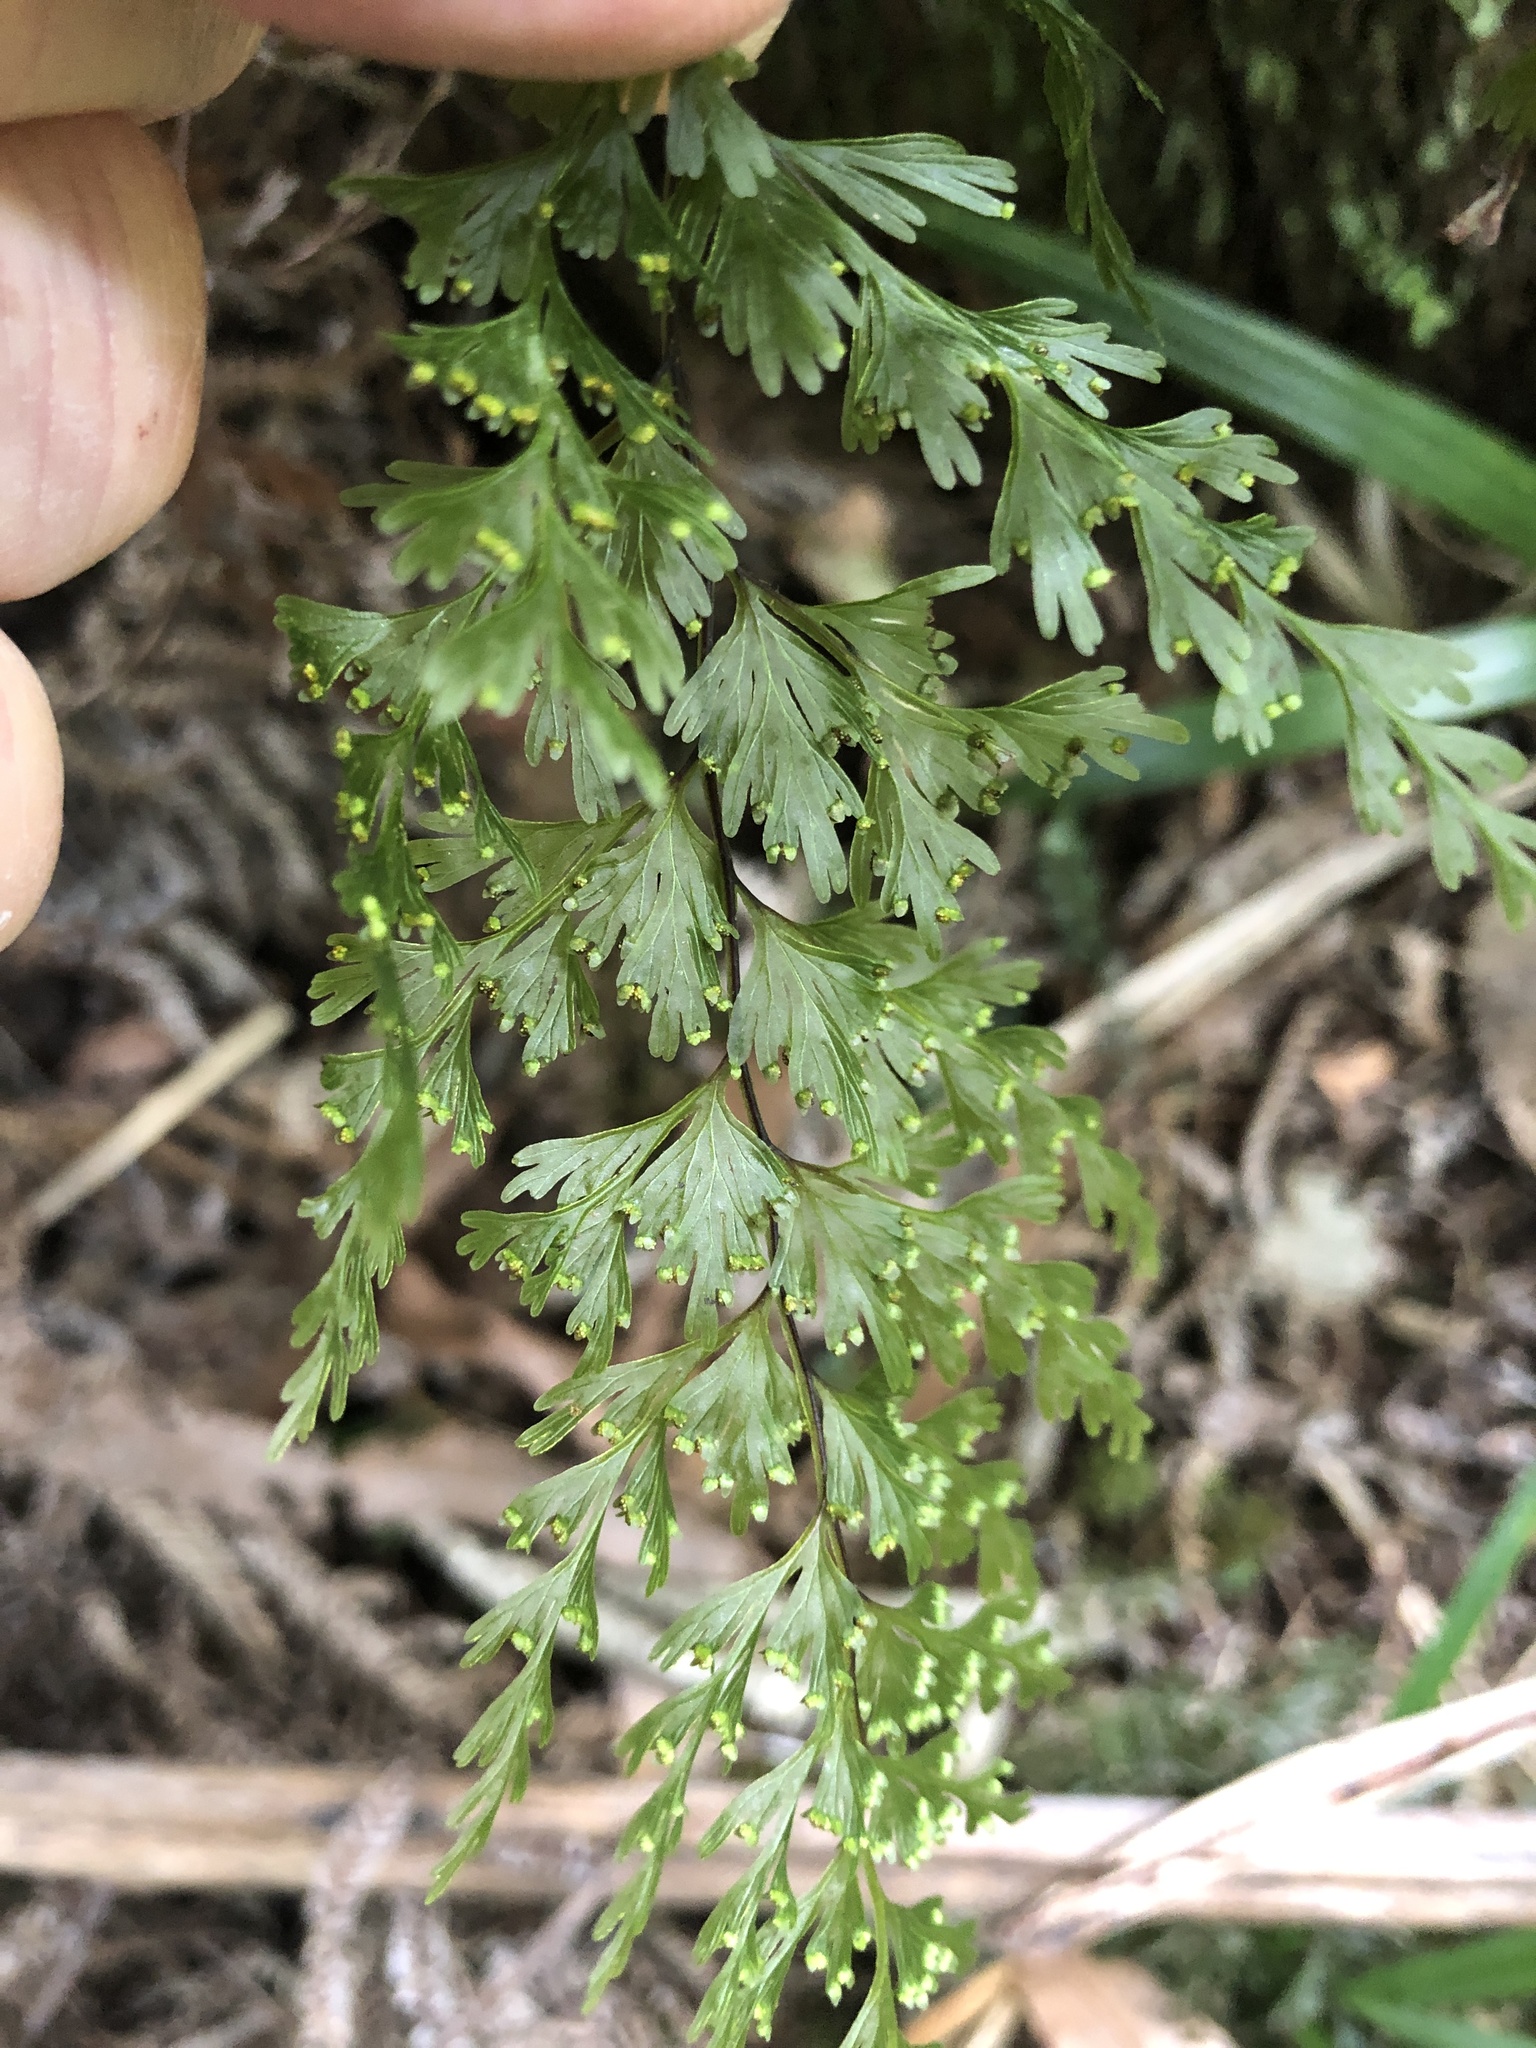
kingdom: Plantae
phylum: Tracheophyta
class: Polypodiopsida
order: Hymenophyllales
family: Hymenophyllaceae
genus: Hymenophyllum
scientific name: Hymenophyllum demissum
